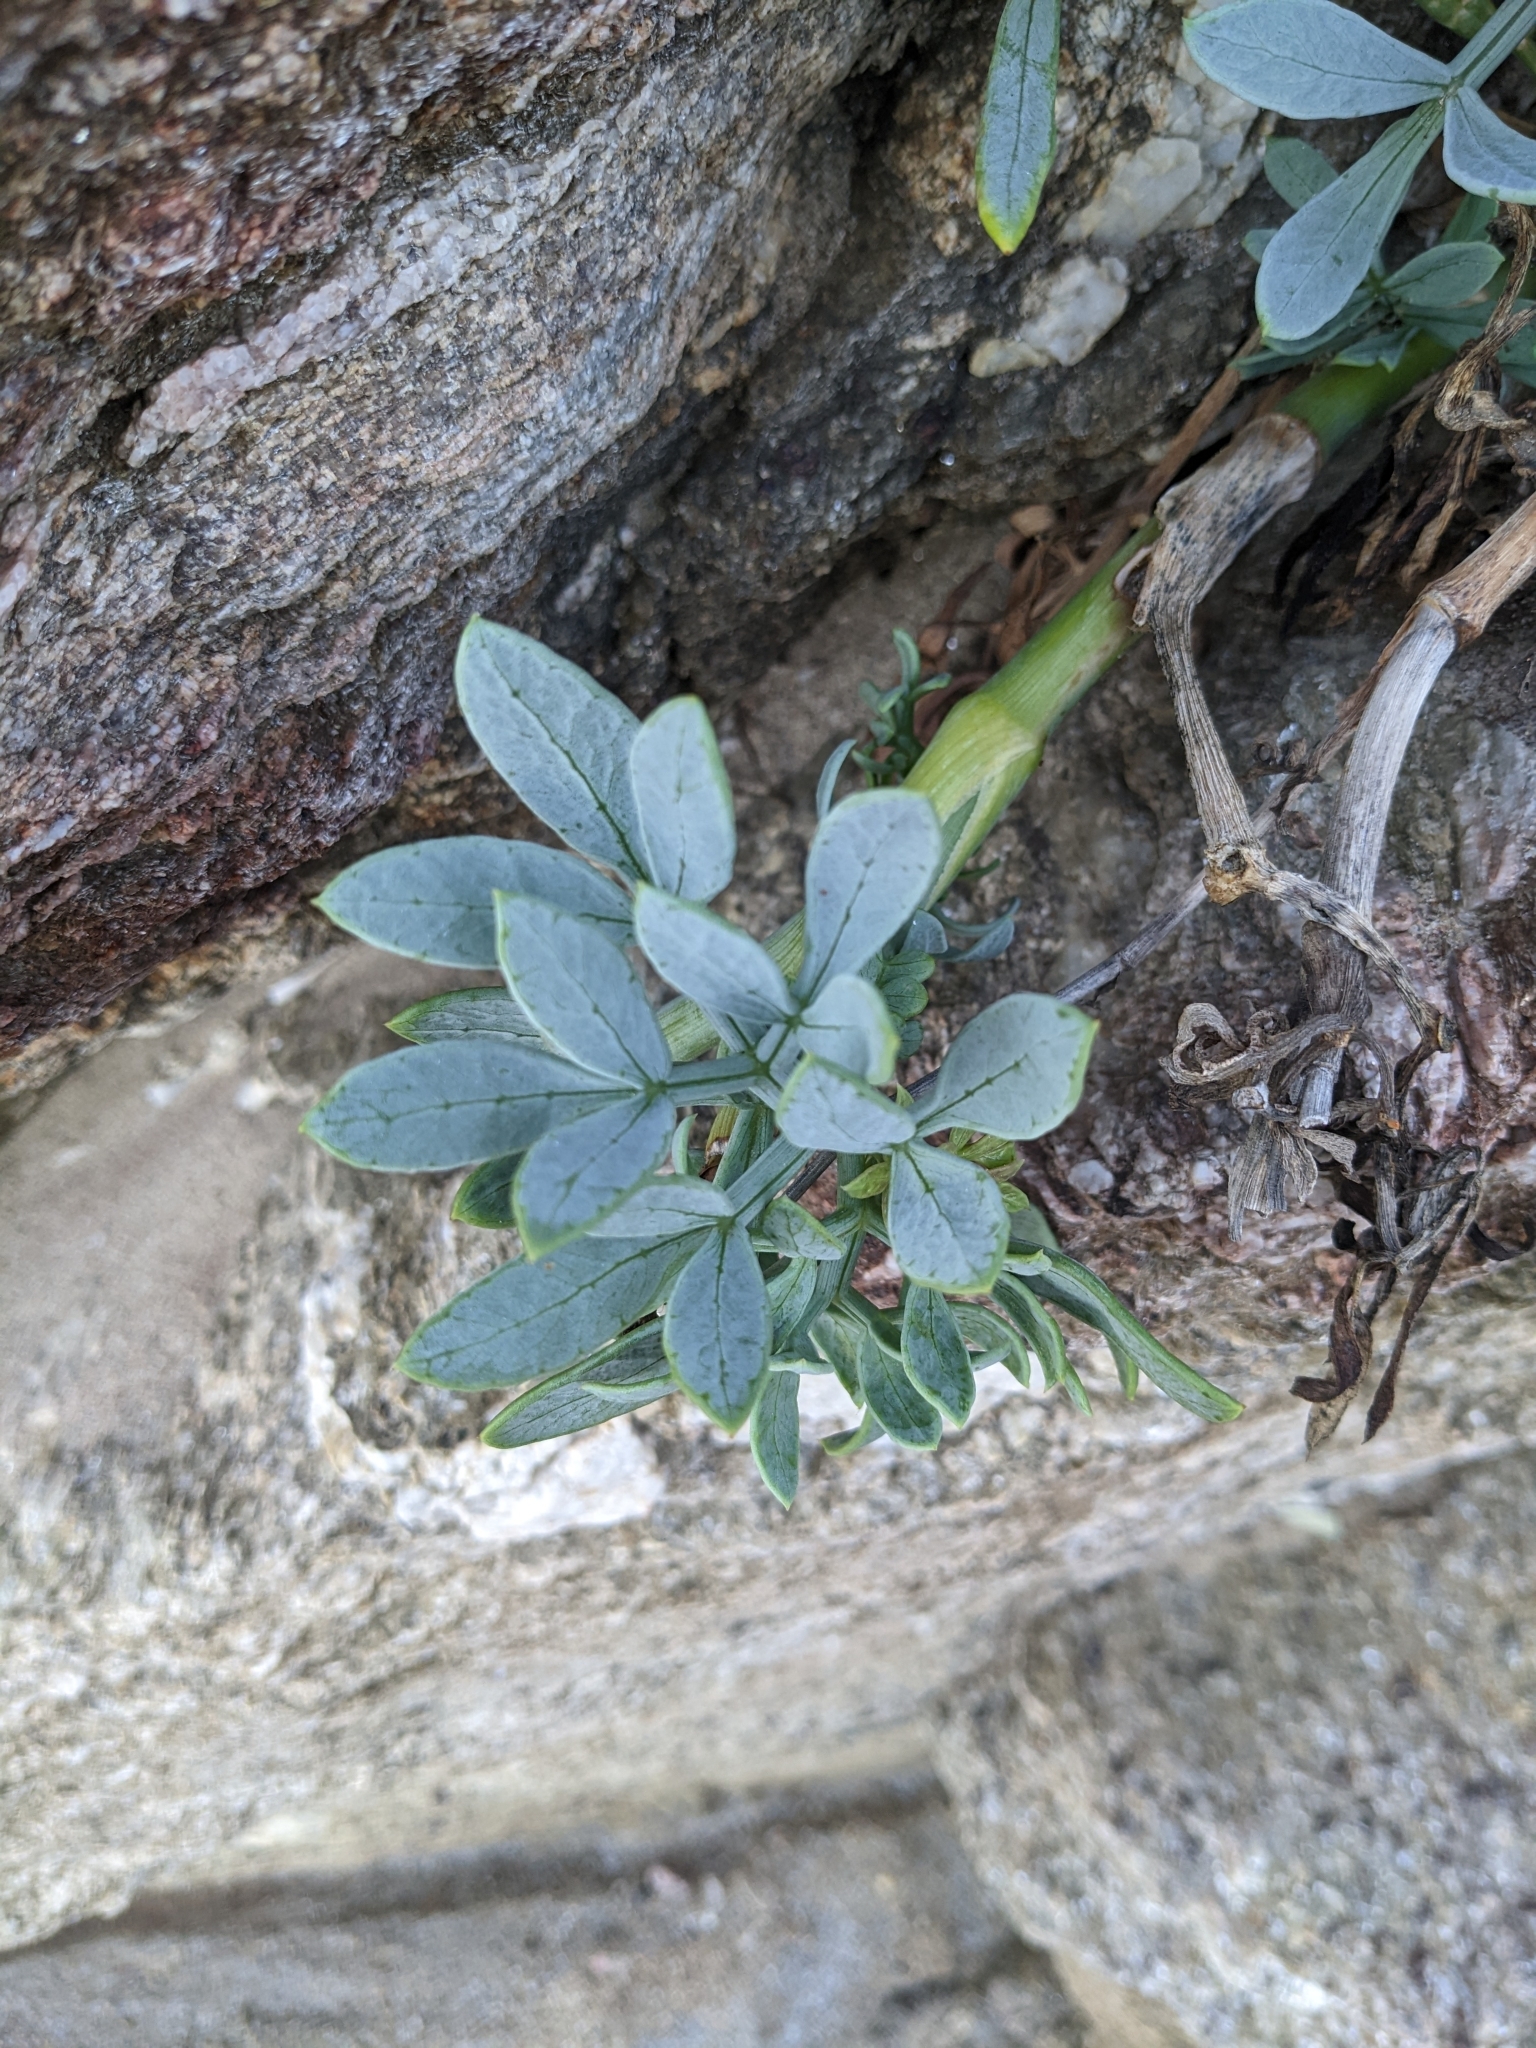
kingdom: Plantae
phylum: Tracheophyta
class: Magnoliopsida
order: Apiales
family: Apiaceae
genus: Crithmum
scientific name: Crithmum maritimum
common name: Rock samphire
